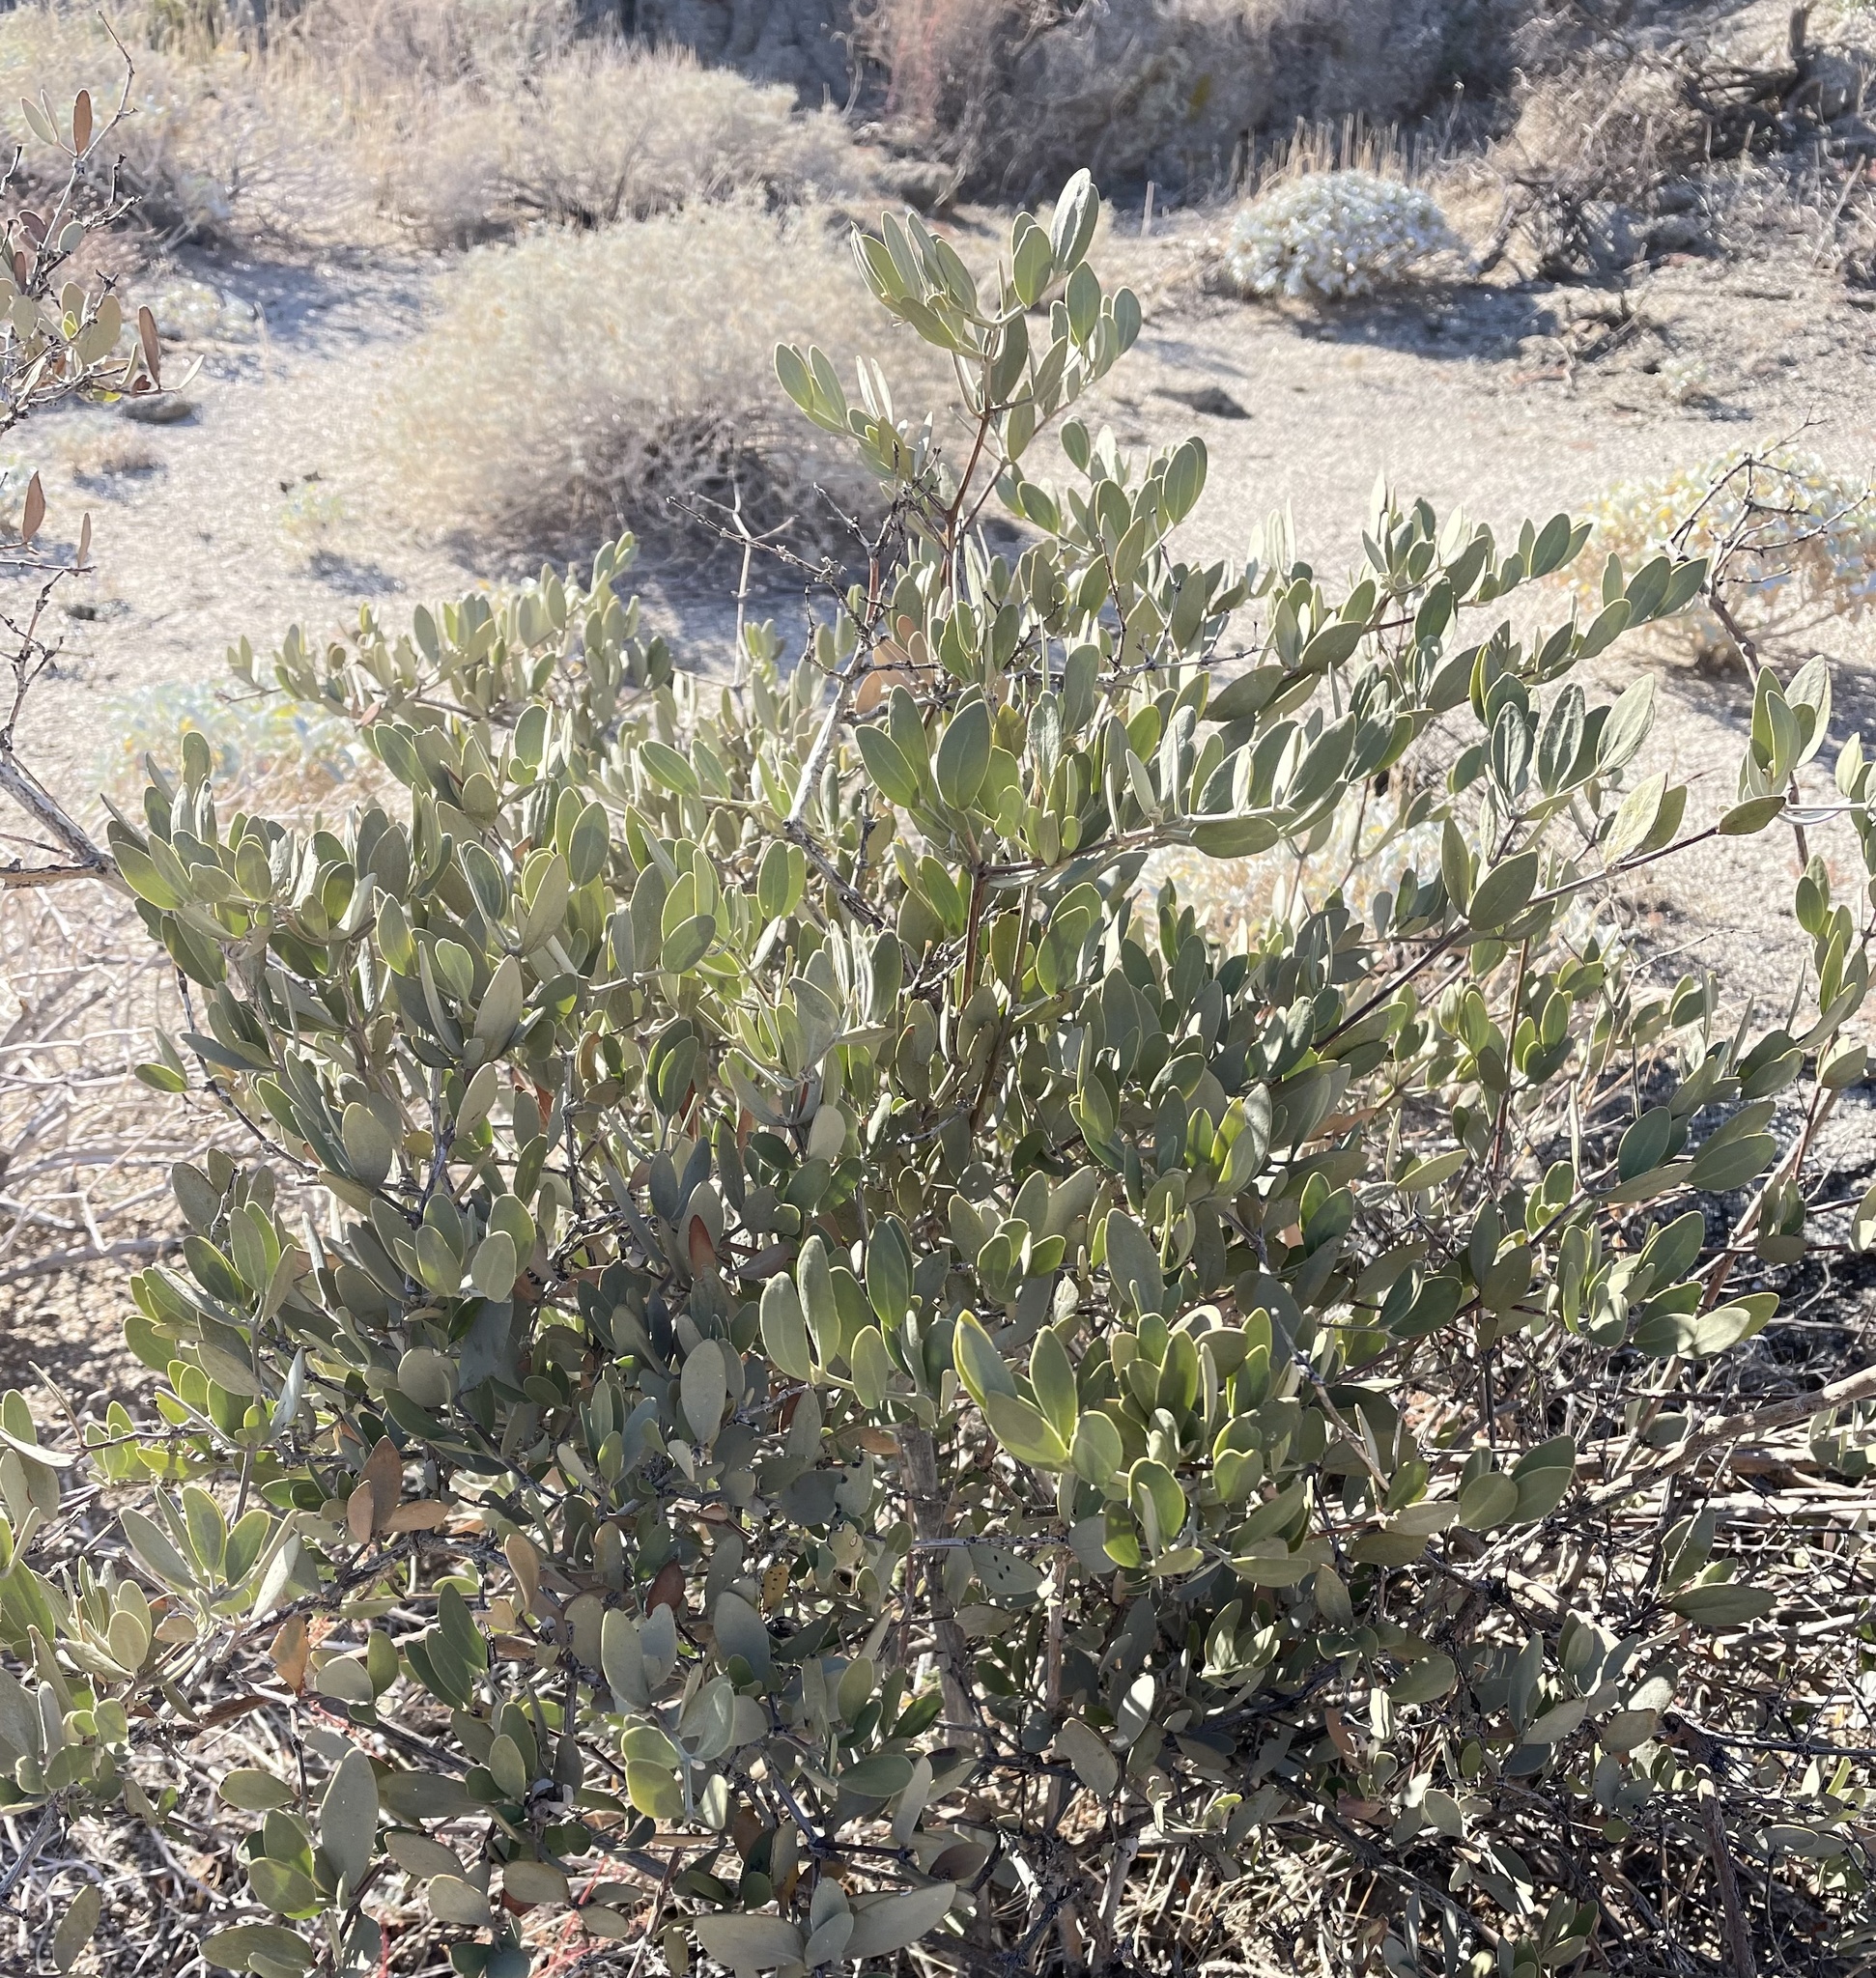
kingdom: Plantae
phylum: Tracheophyta
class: Magnoliopsida
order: Caryophyllales
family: Simmondsiaceae
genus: Simmondsia
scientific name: Simmondsia chinensis
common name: Jojoba
